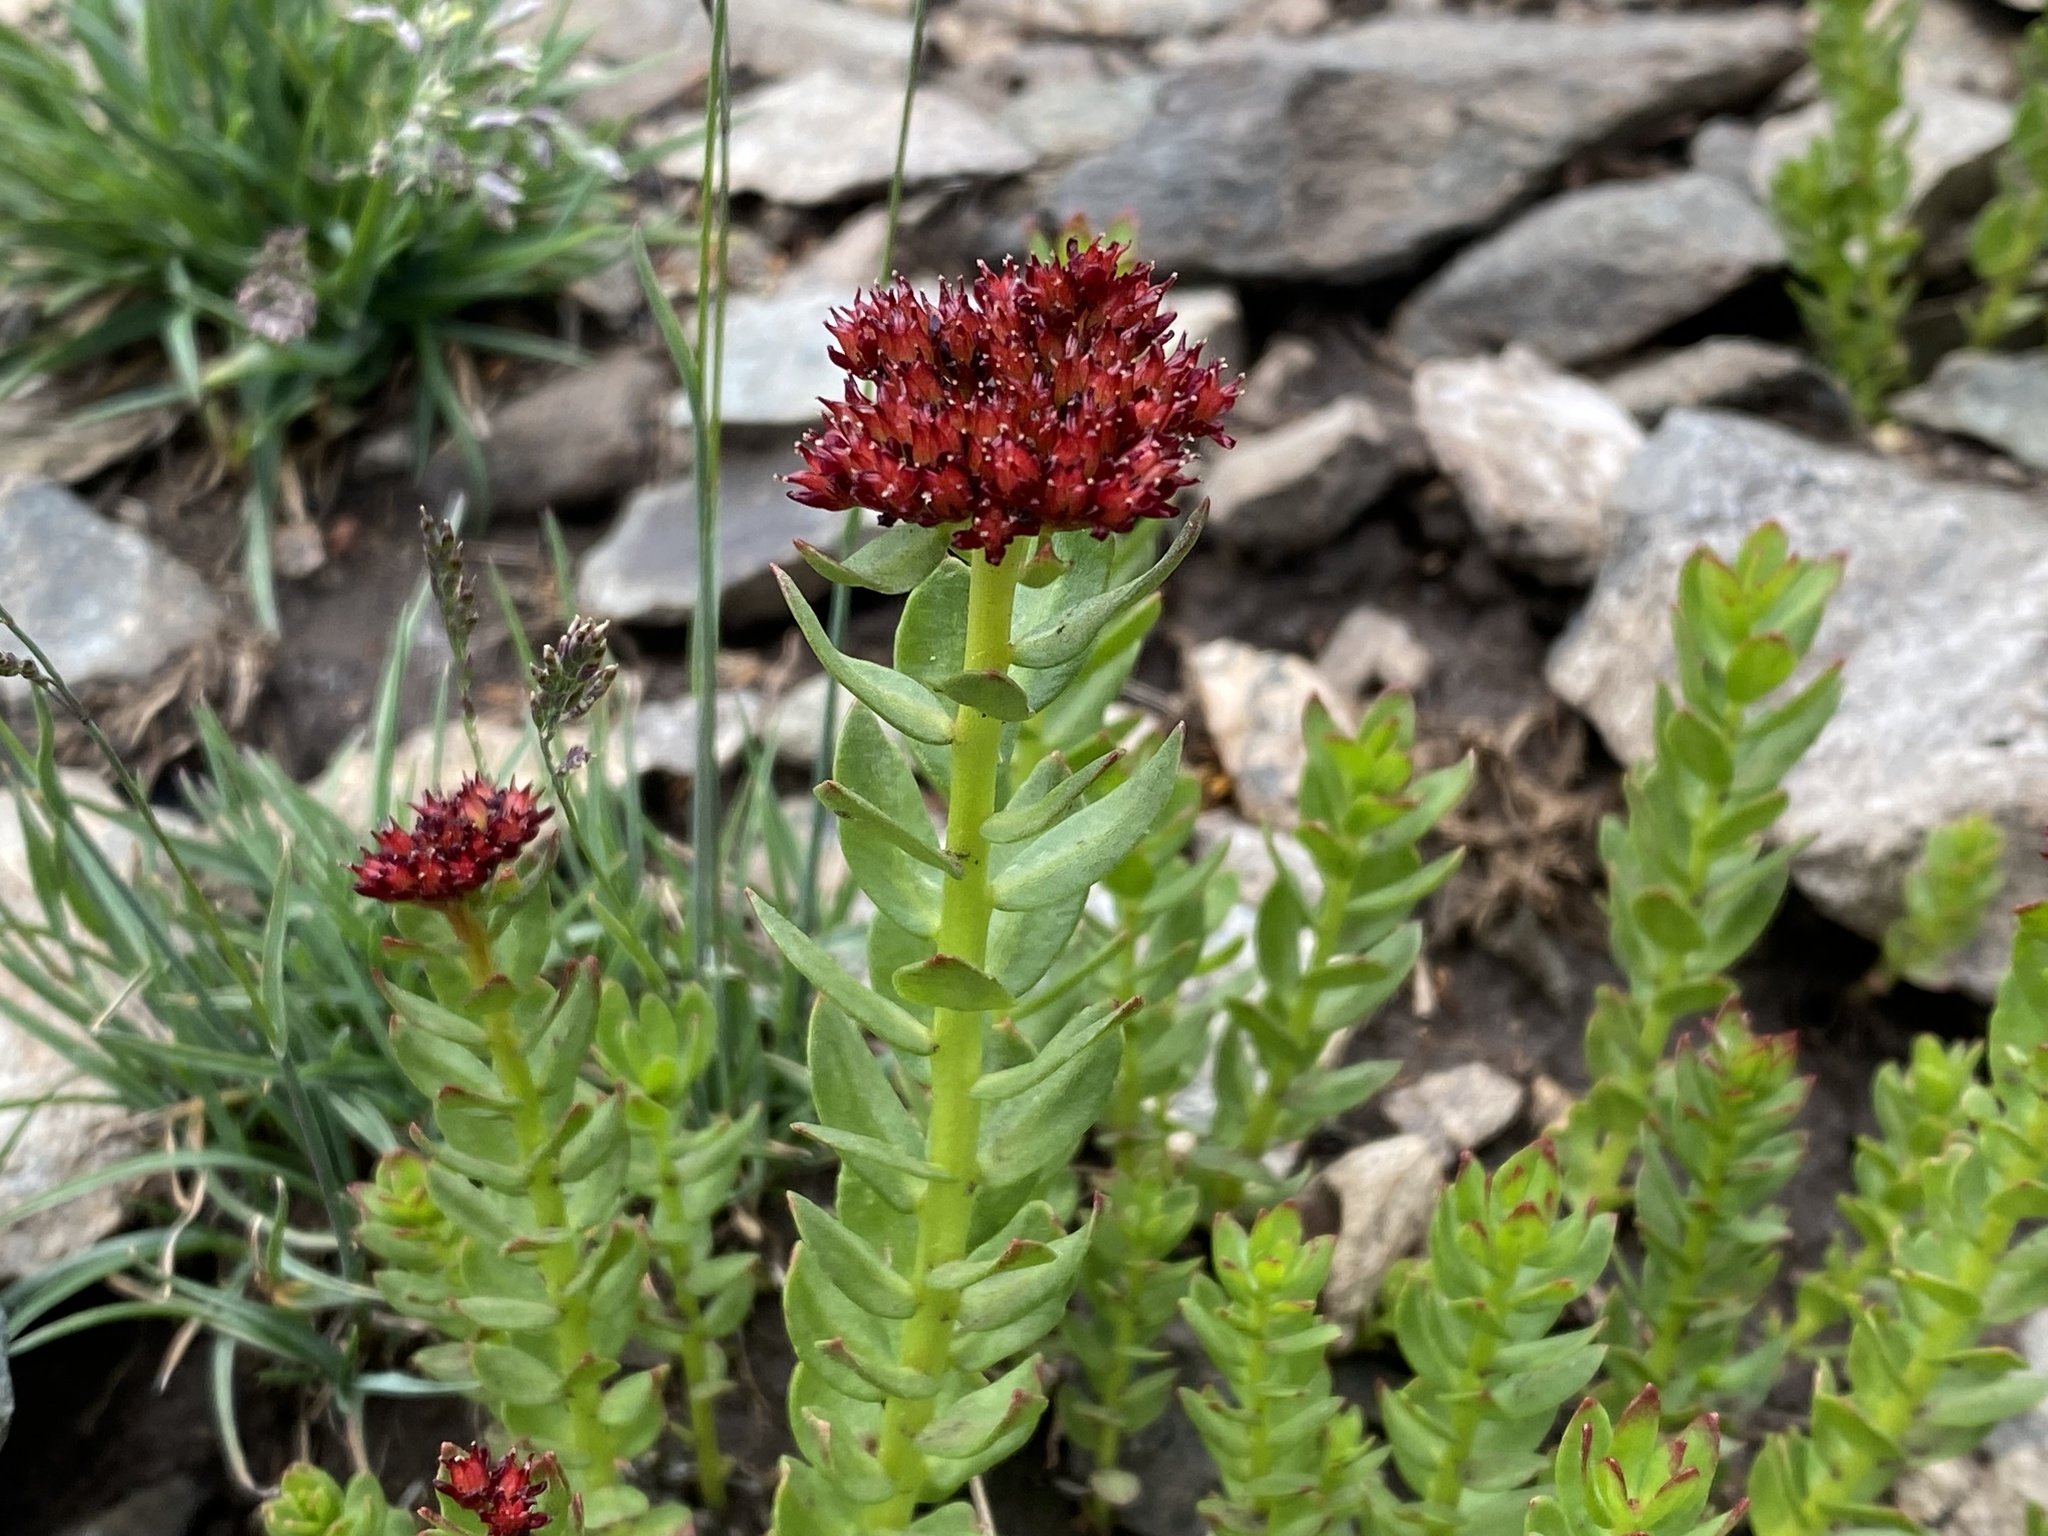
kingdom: Plantae
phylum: Tracheophyta
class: Magnoliopsida
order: Saxifragales
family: Crassulaceae
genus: Rhodiola
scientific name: Rhodiola integrifolia
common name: Western roseroot
